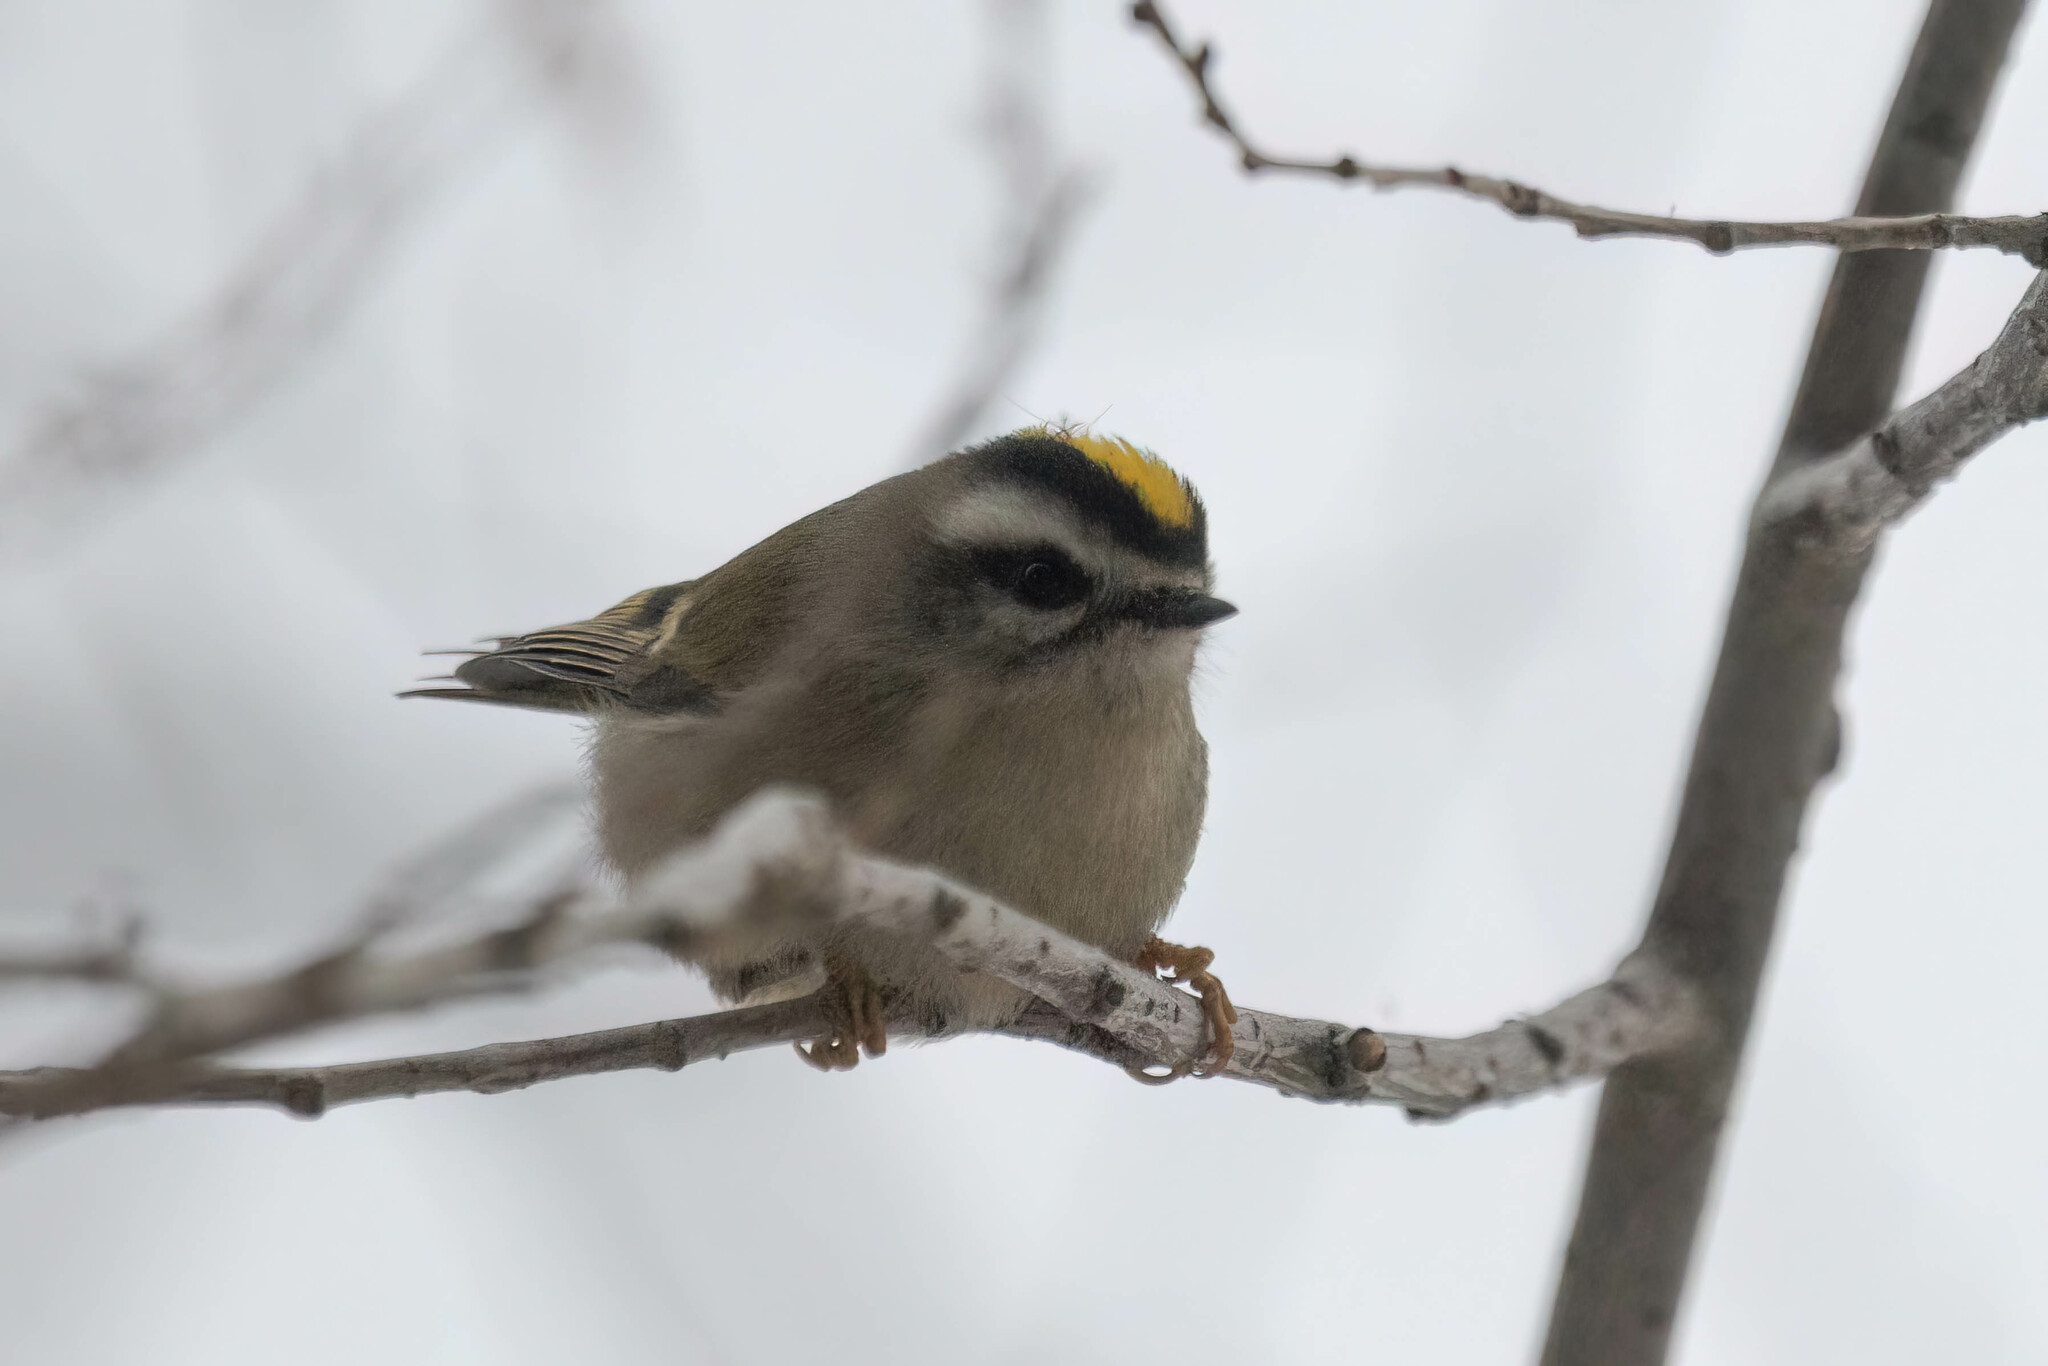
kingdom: Animalia
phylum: Chordata
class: Aves
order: Passeriformes
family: Regulidae
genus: Regulus
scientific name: Regulus satrapa
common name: Golden-crowned kinglet
